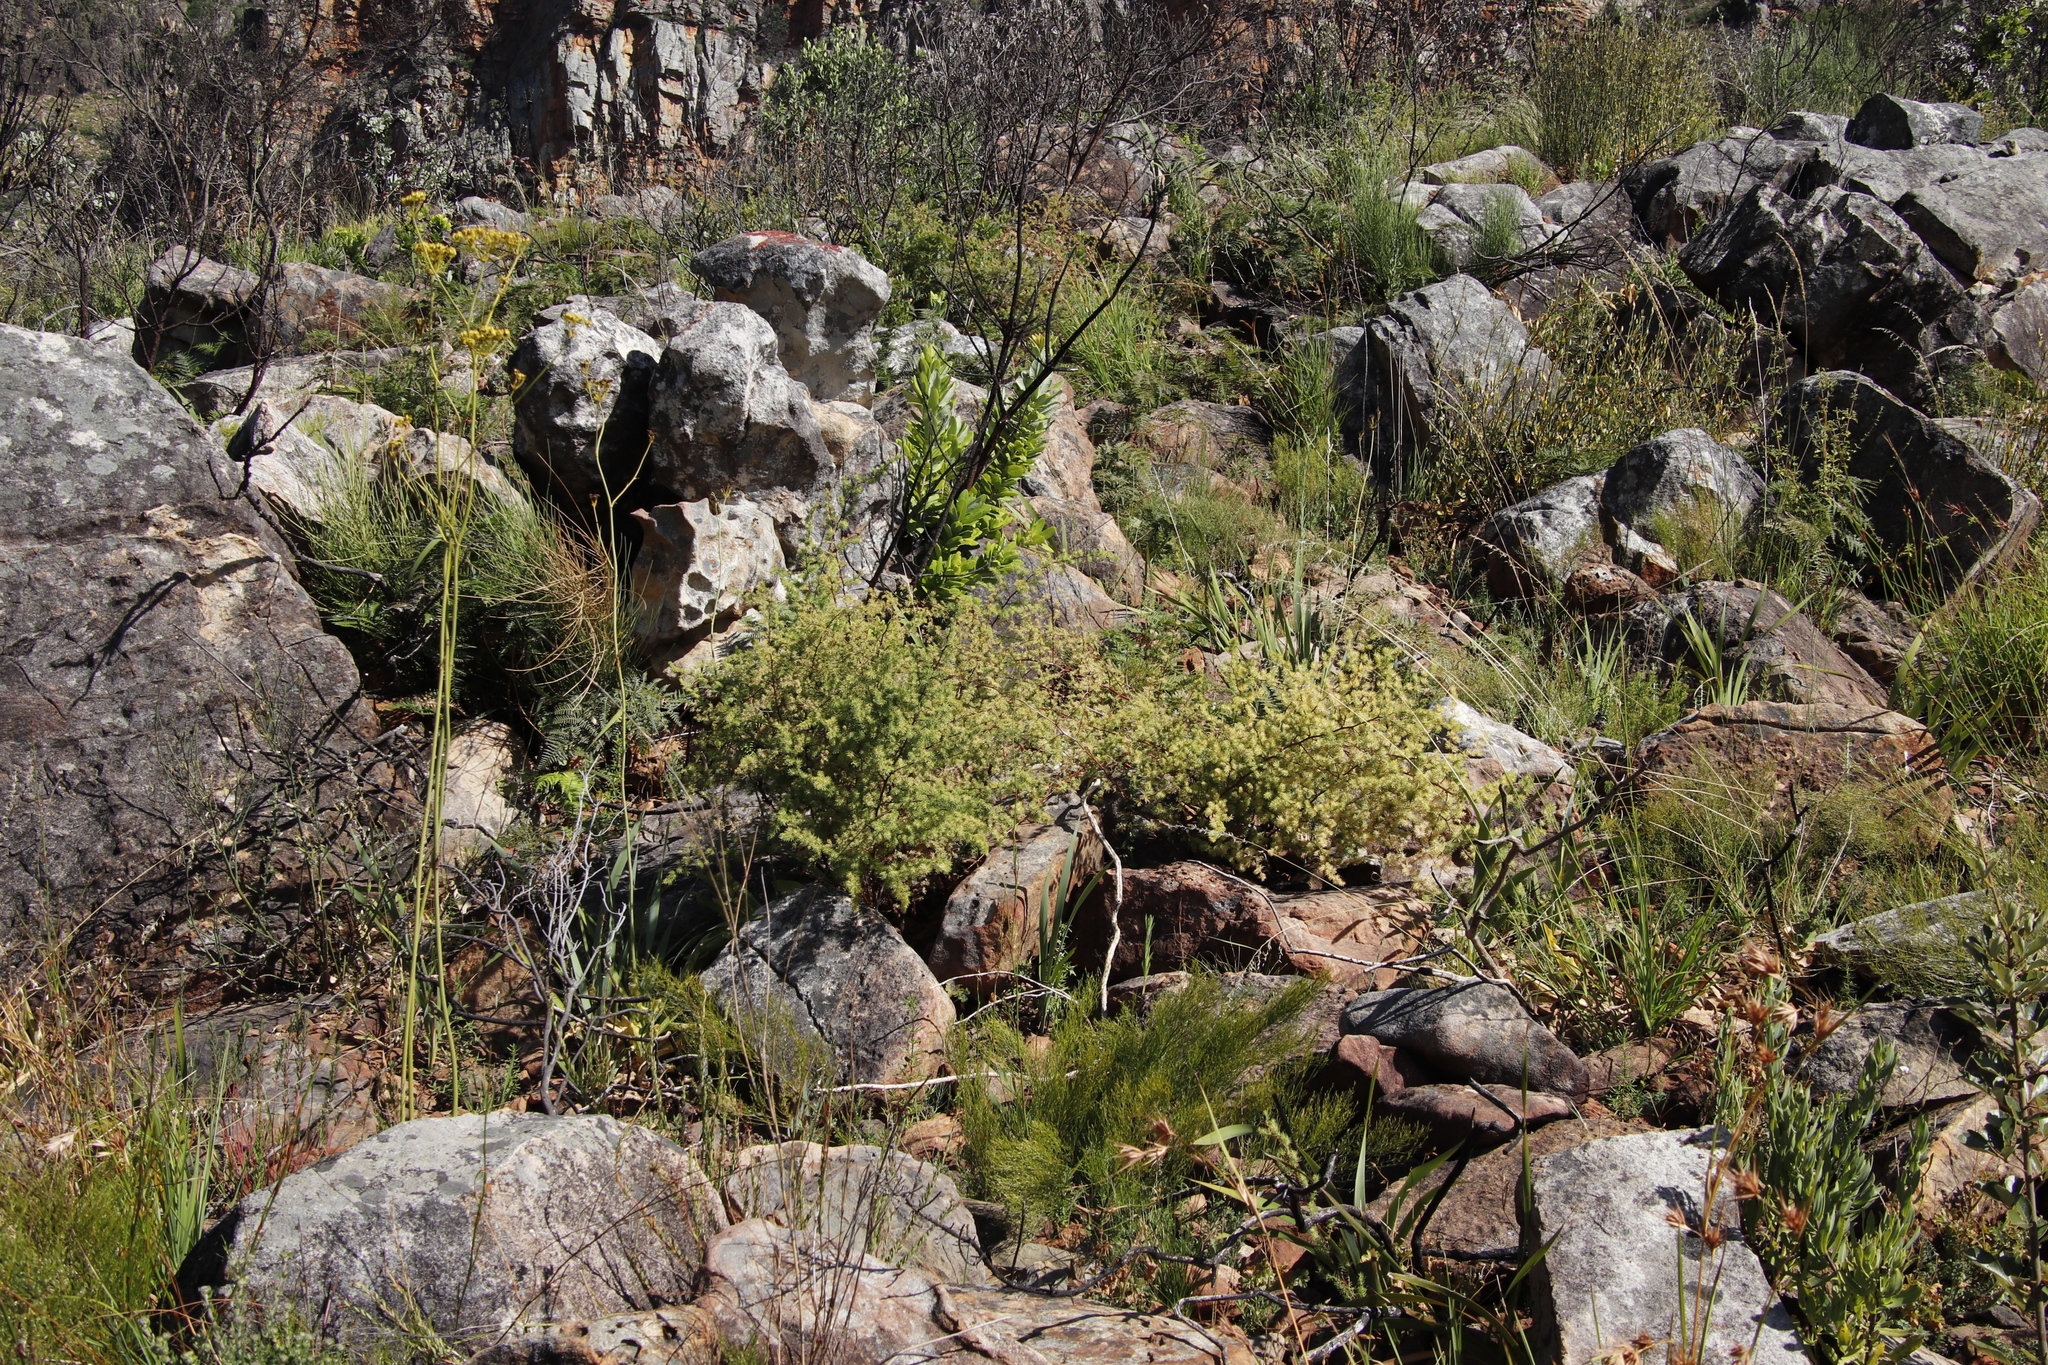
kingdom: Plantae
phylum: Tracheophyta
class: Liliopsida
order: Asparagales
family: Asparagaceae
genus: Asparagus
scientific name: Asparagus rubicundus
